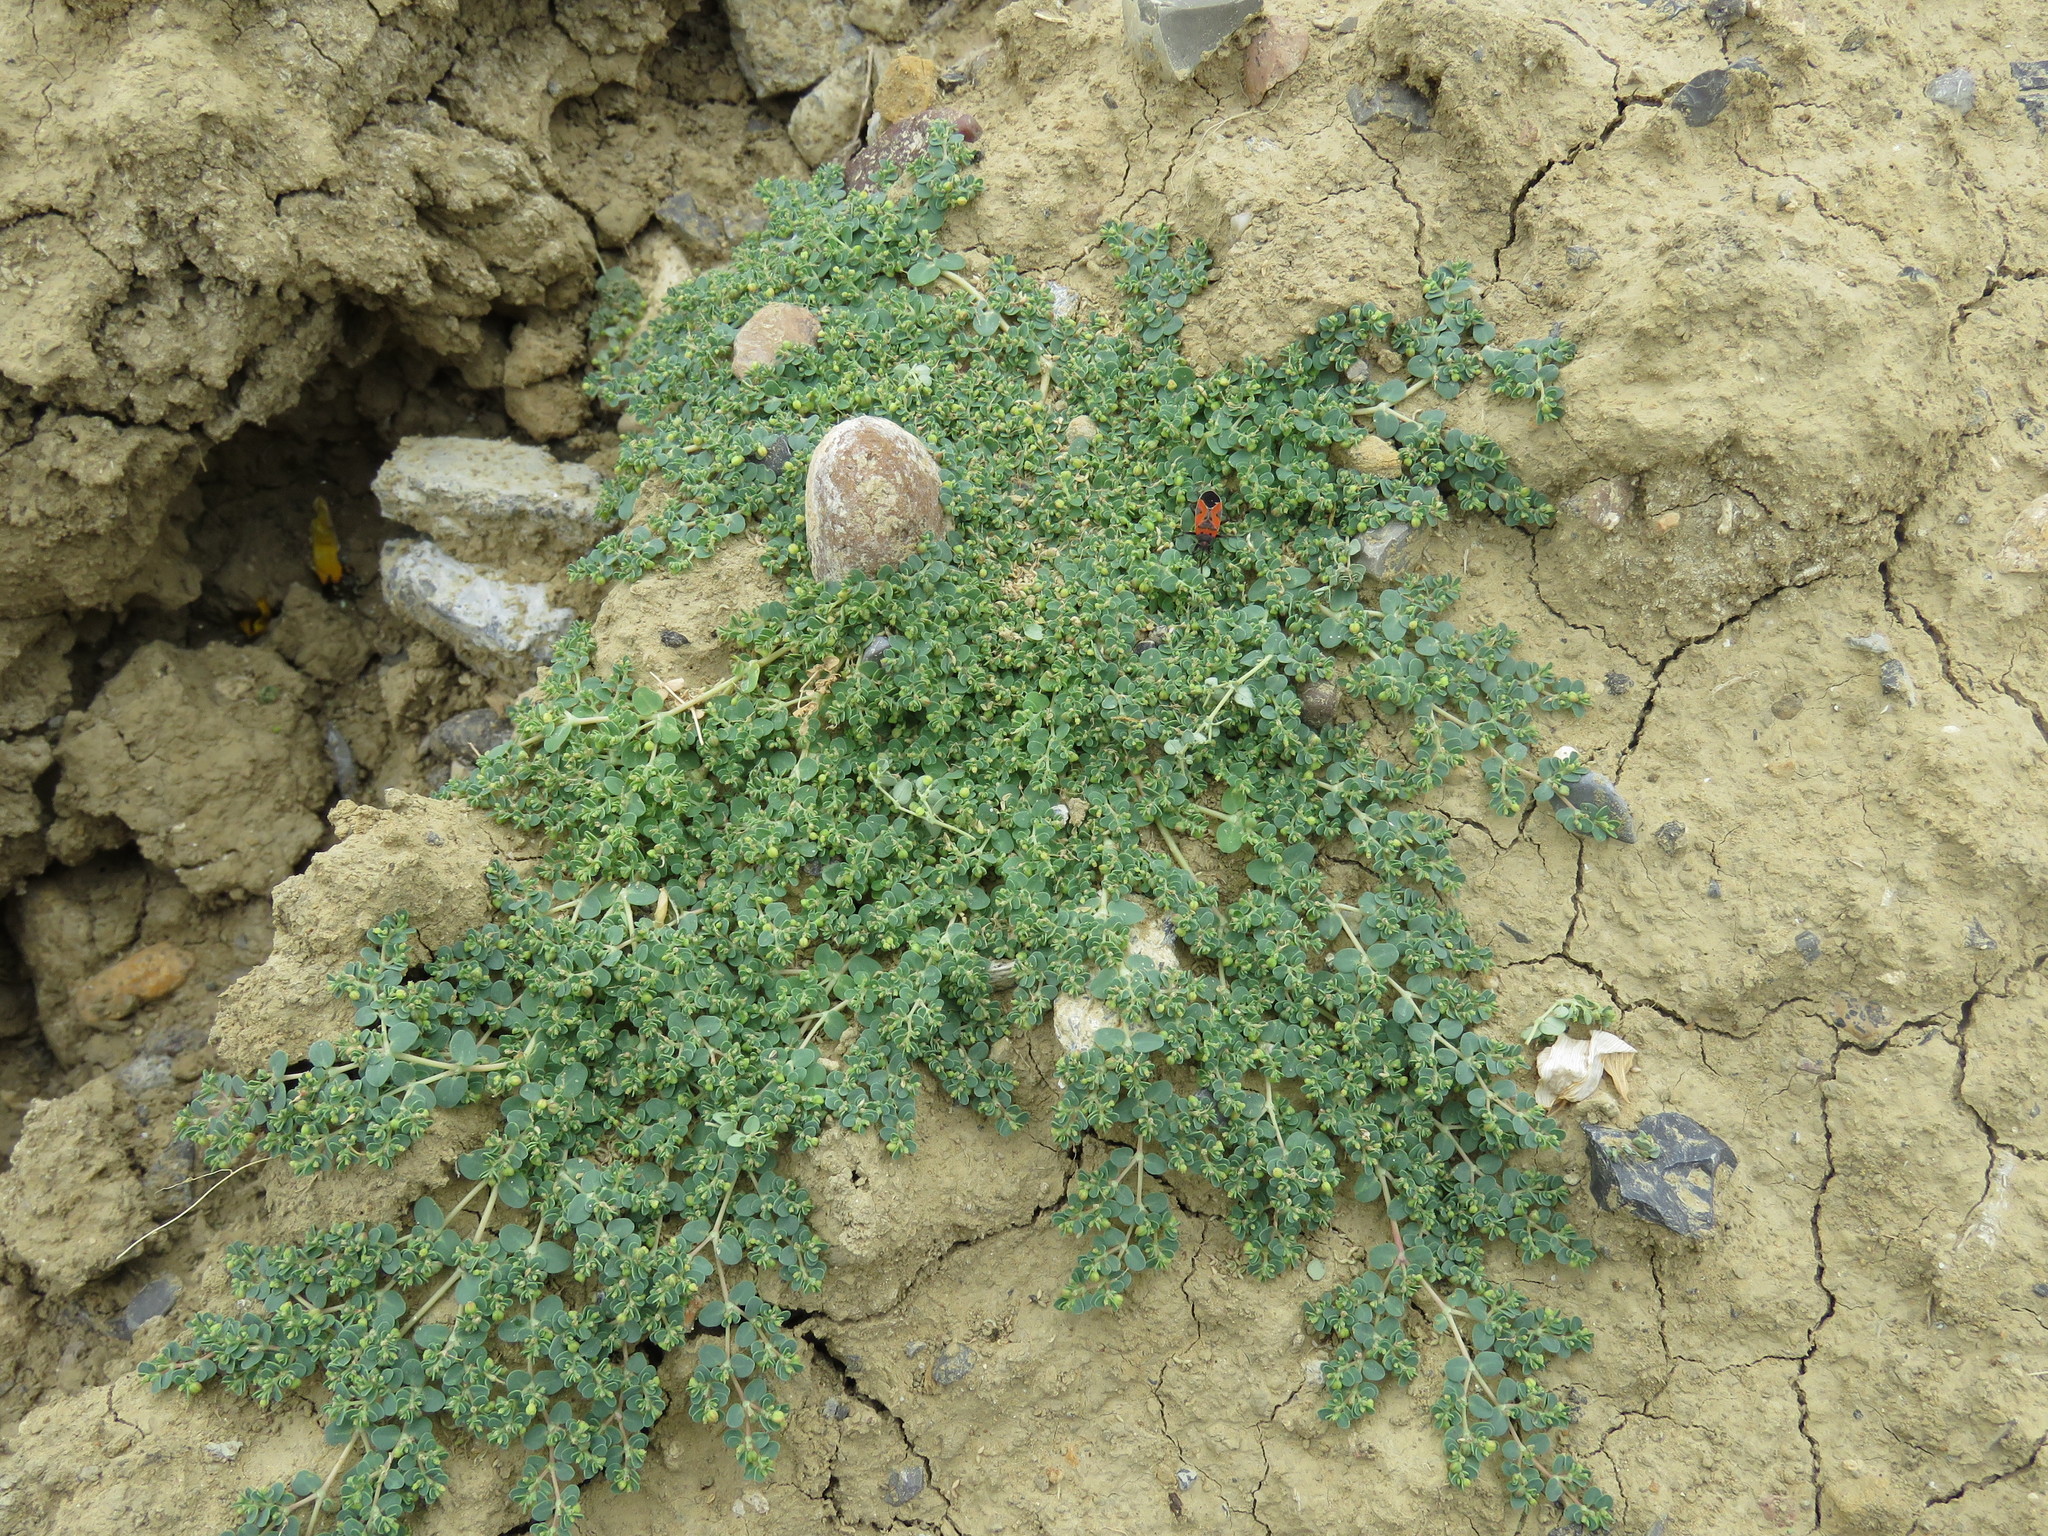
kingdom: Plantae
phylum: Tracheophyta
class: Magnoliopsida
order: Malpighiales
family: Euphorbiaceae
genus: Euphorbia
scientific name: Euphorbia serpens
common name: Matted sandmat
